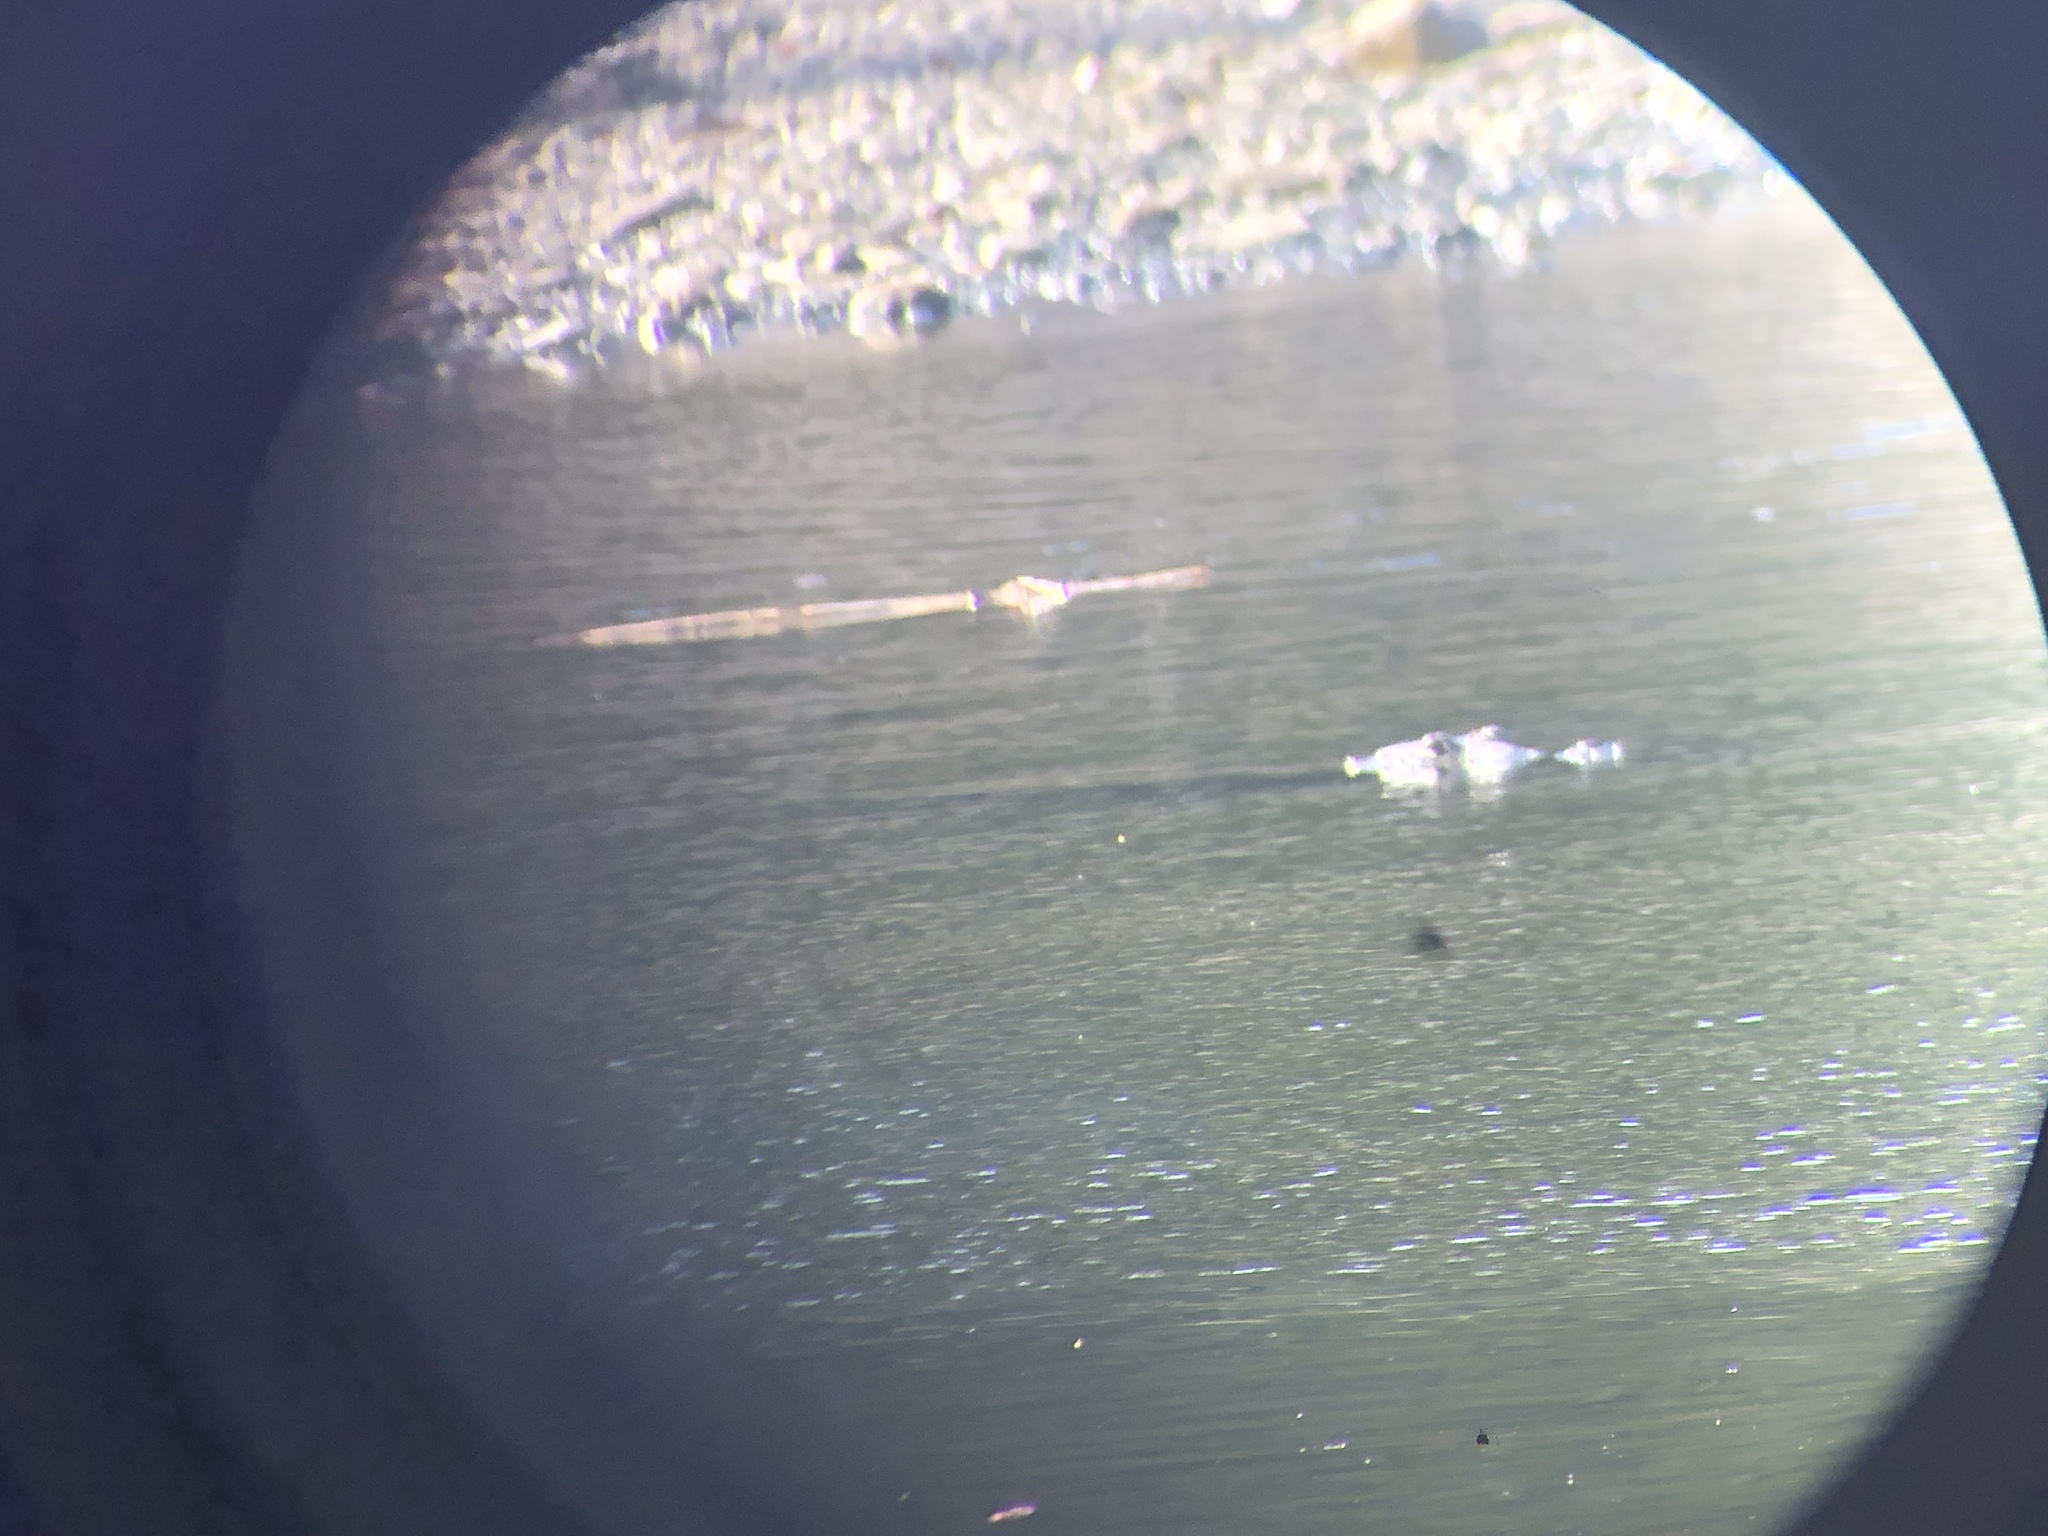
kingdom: Animalia
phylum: Chordata
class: Crocodylia
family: Crocodylidae
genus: Crocodylus
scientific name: Crocodylus acutus
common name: American crocodile
